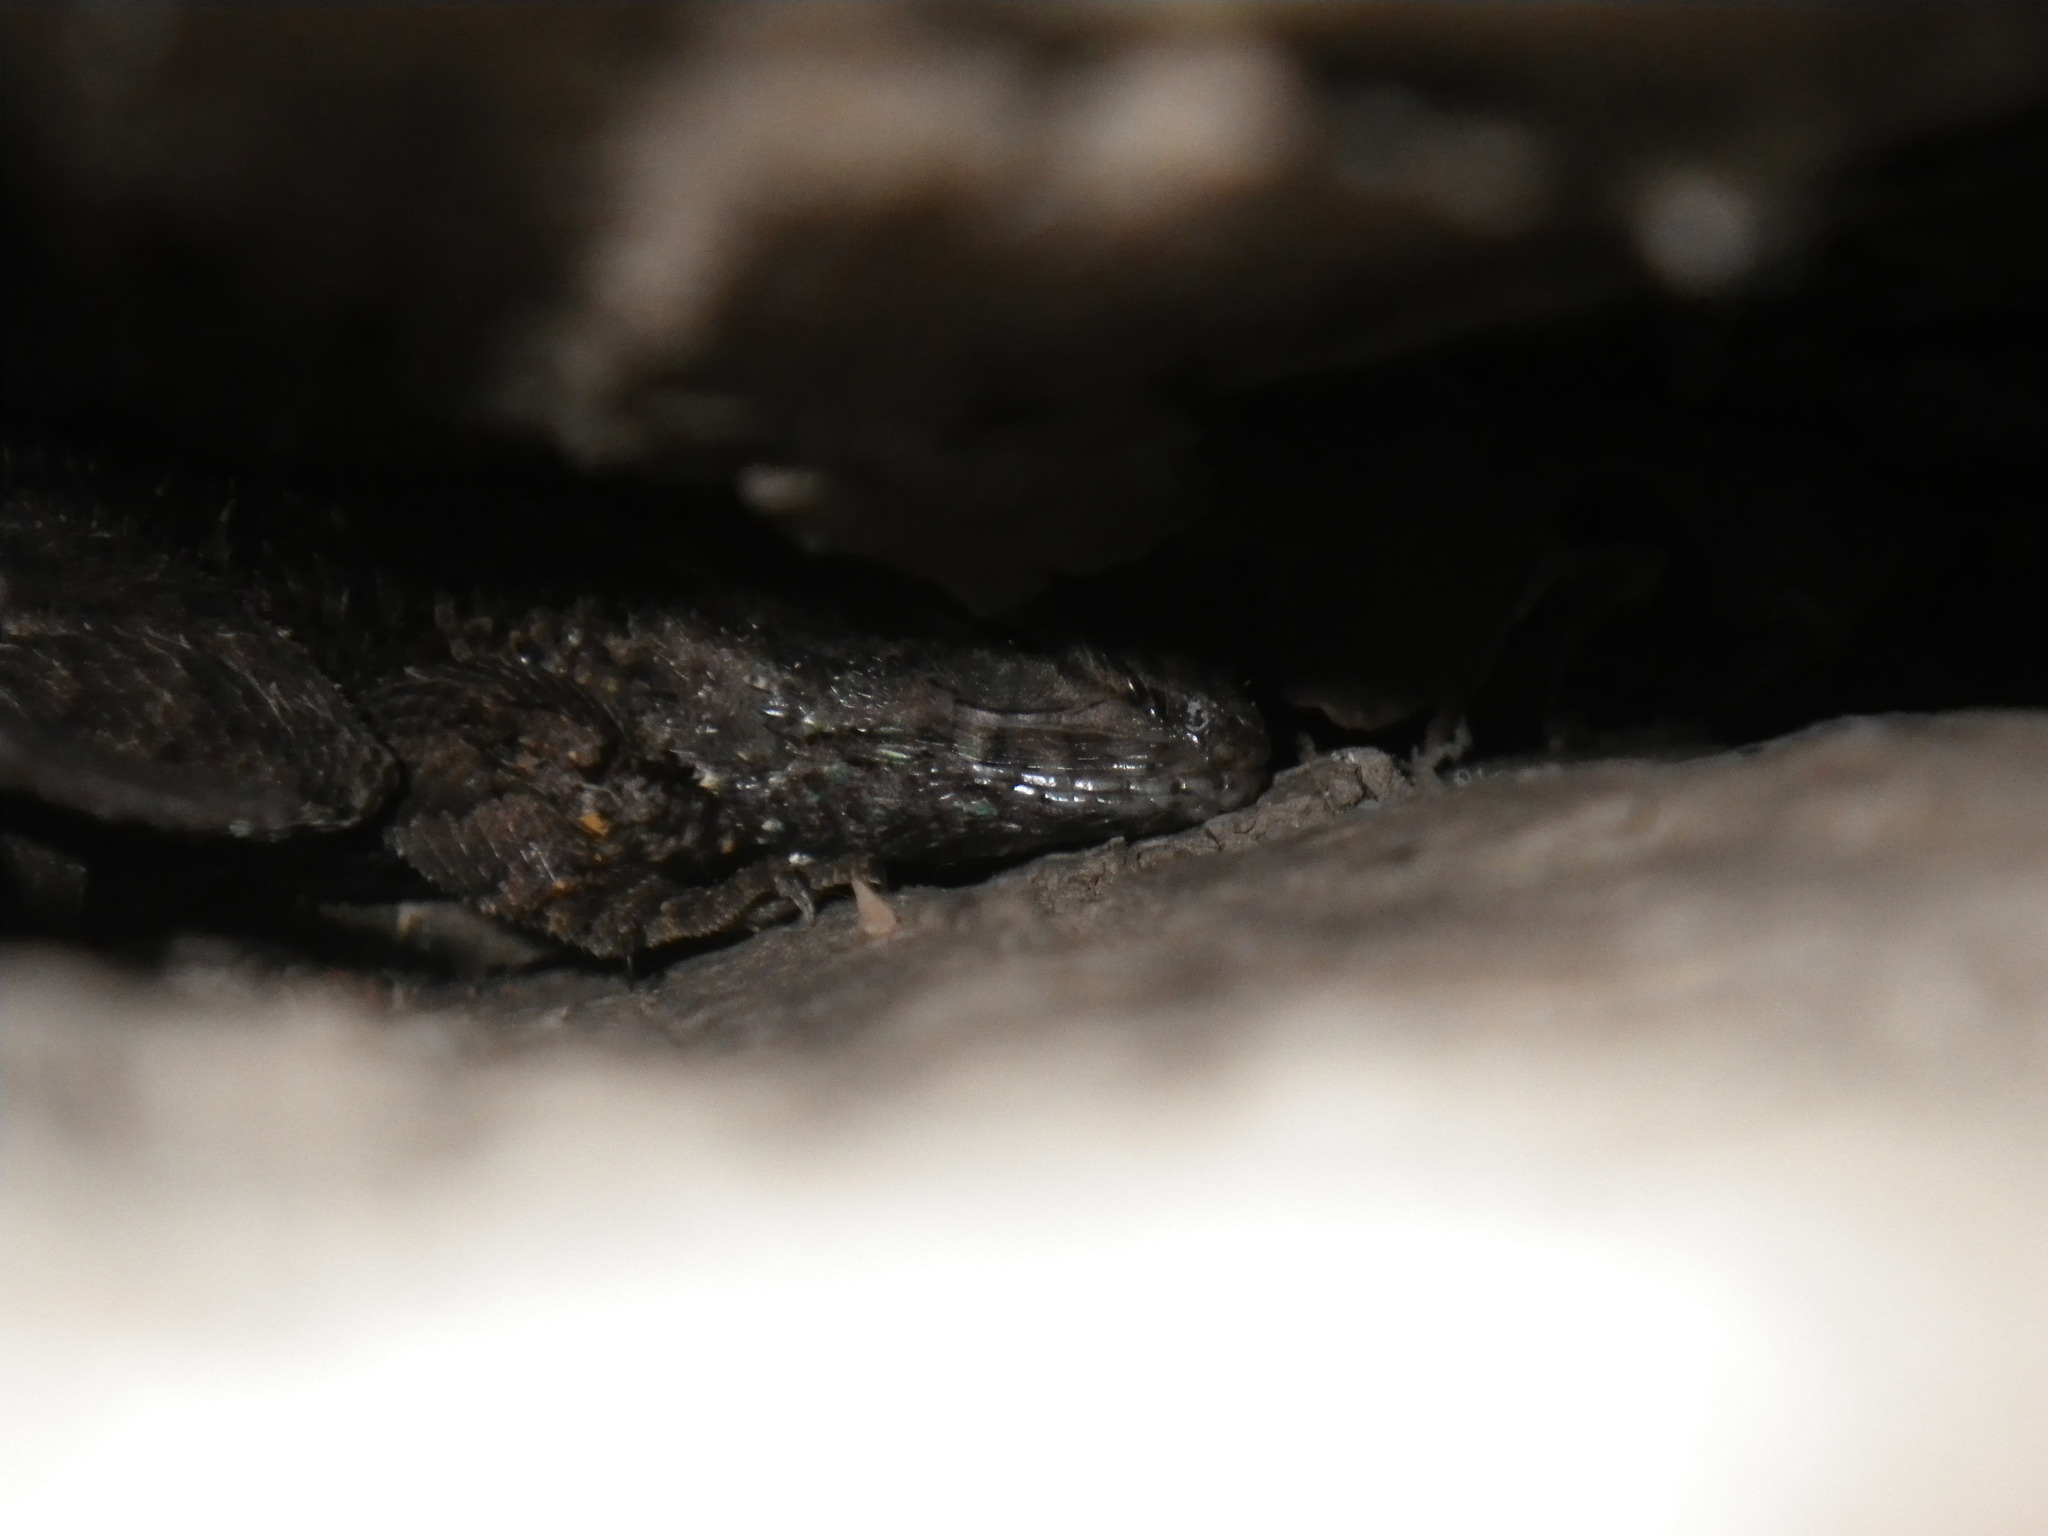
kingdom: Animalia
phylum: Chordata
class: Squamata
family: Phrynosomatidae
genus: Sceloporus
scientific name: Sceloporus occidentalis
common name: Western fence lizard
